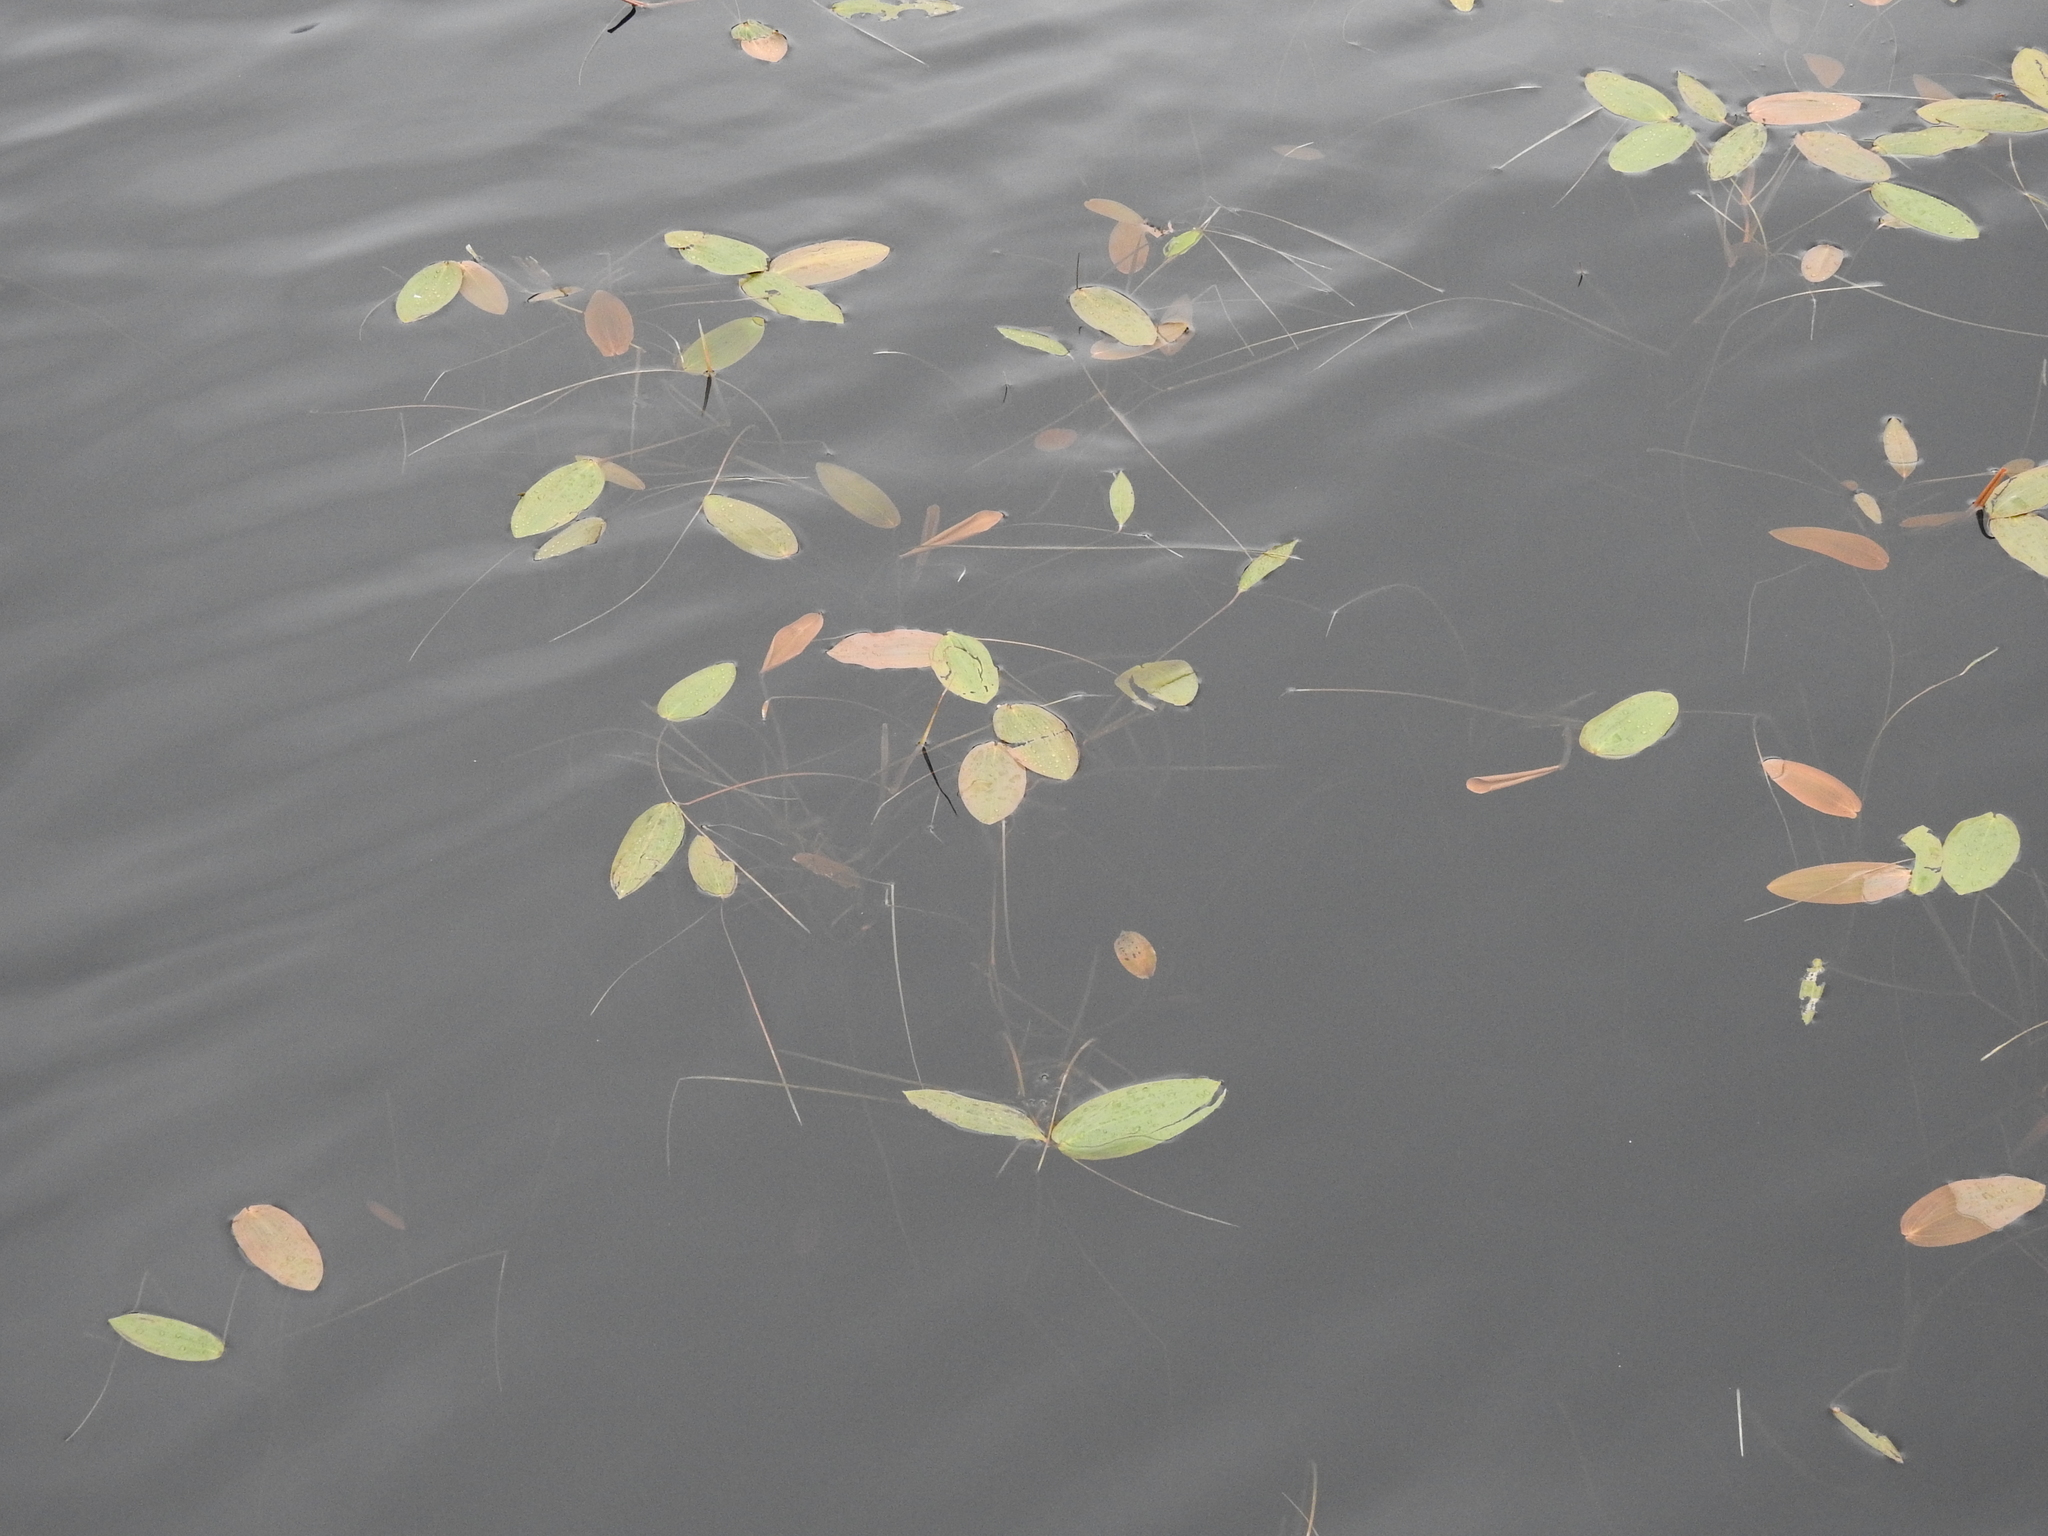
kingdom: Plantae
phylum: Tracheophyta
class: Liliopsida
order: Alismatales
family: Potamogetonaceae
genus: Potamogeton
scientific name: Potamogeton natans
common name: Broad-leaved pondweed
